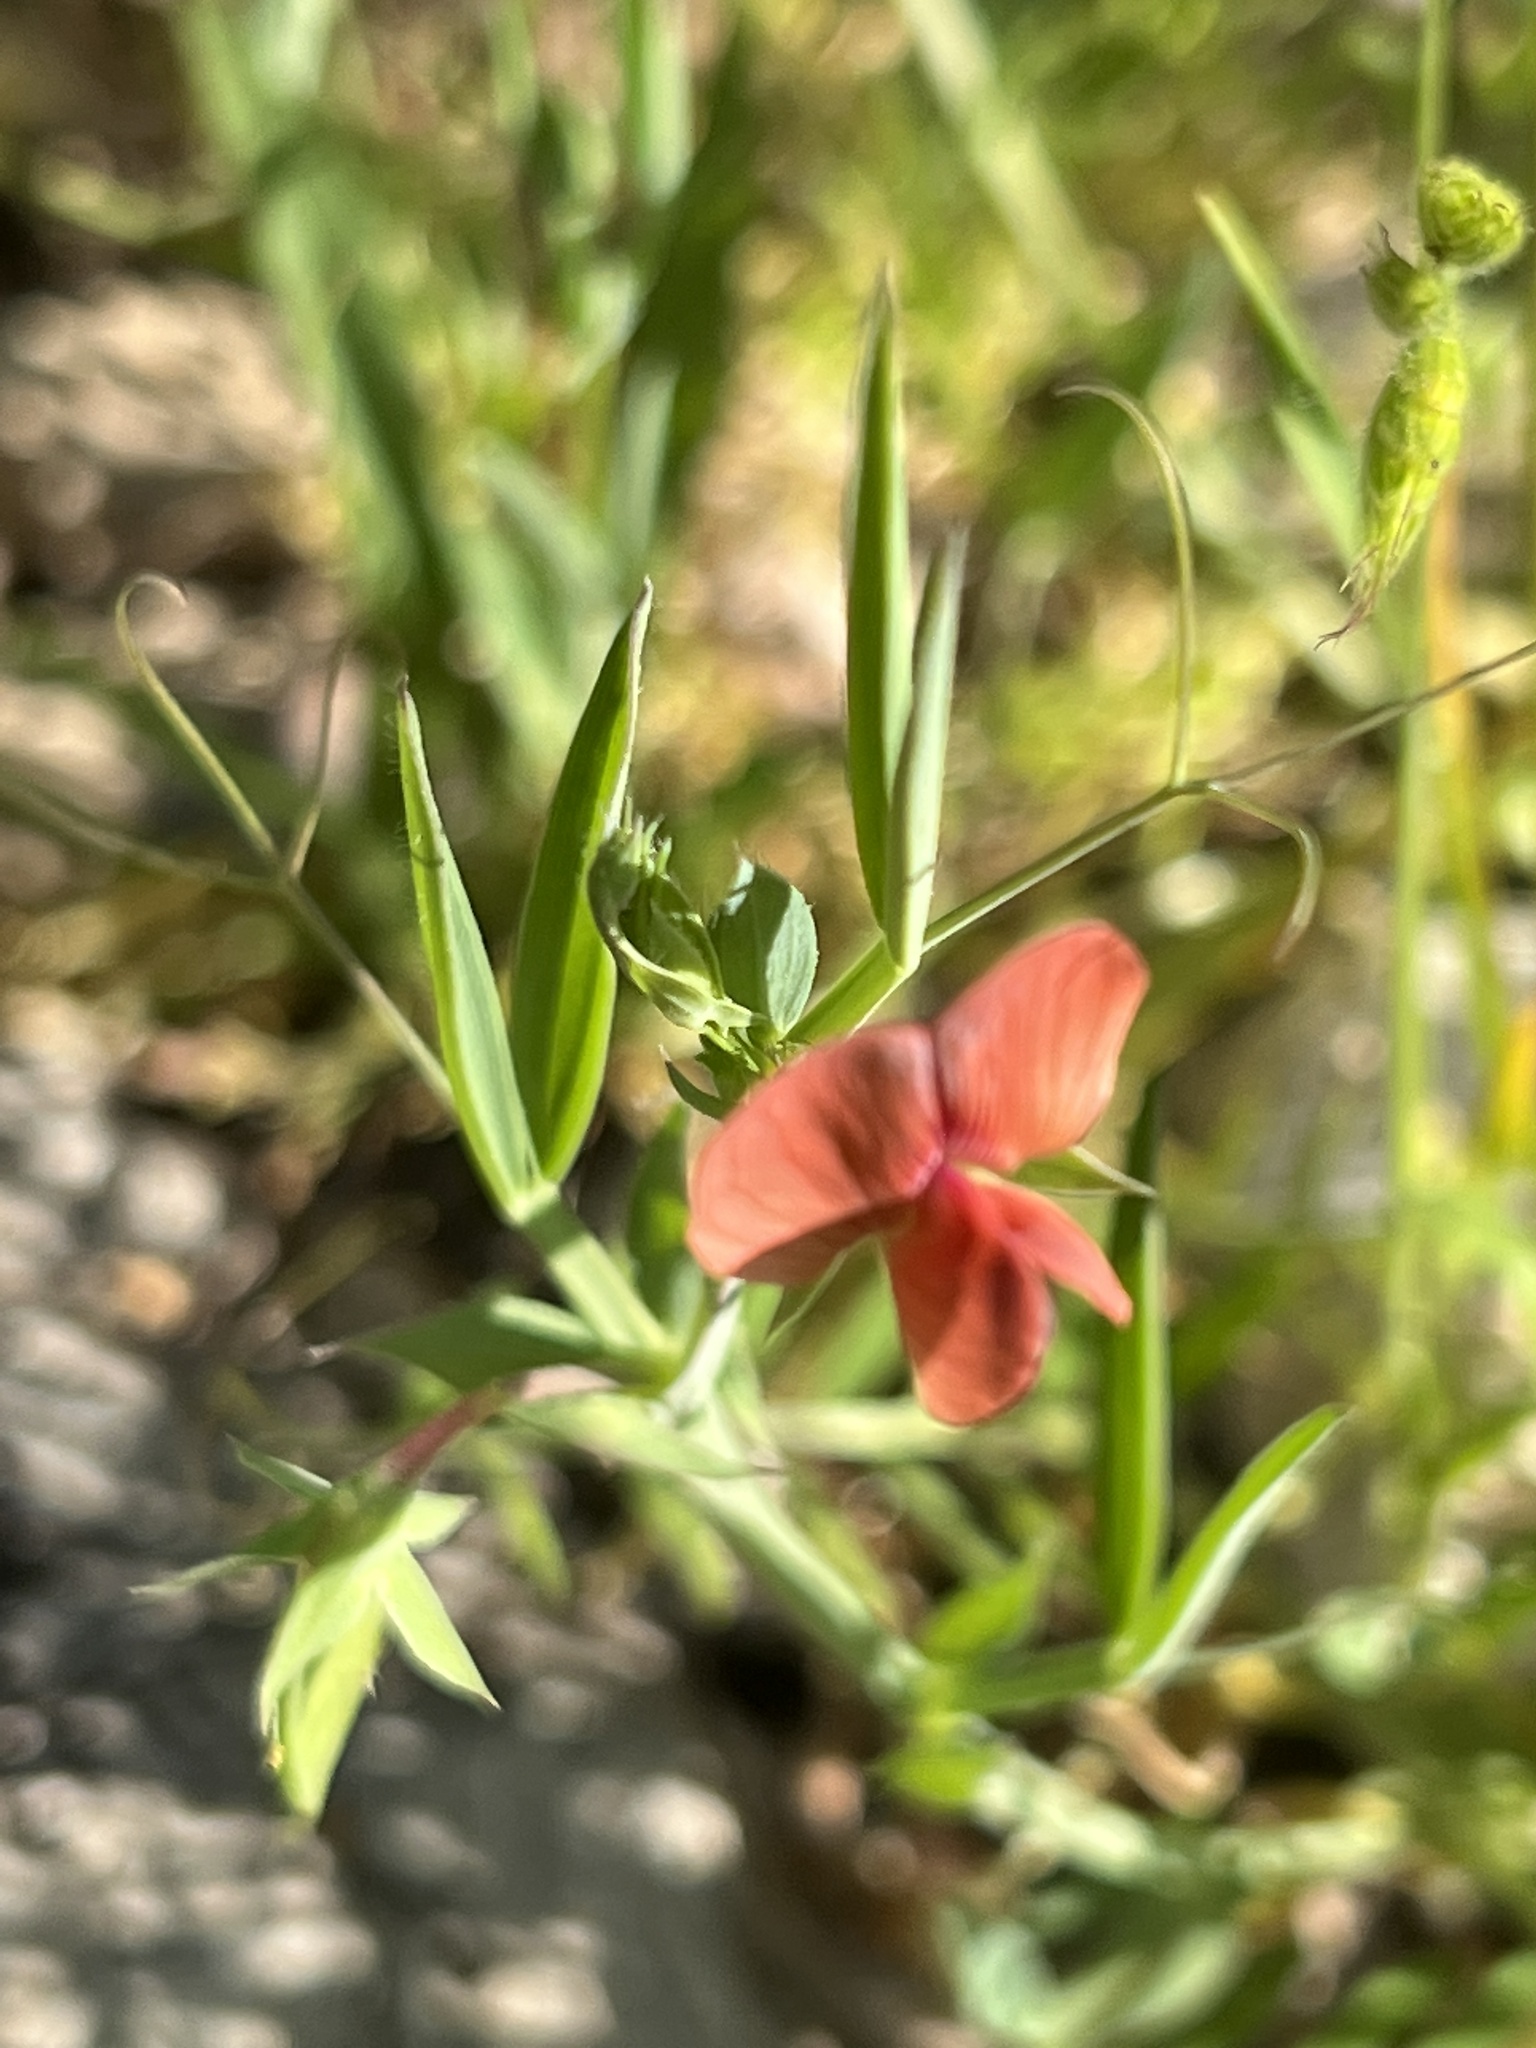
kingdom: Plantae
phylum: Tracheophyta
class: Magnoliopsida
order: Fabales
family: Fabaceae
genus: Lathyrus
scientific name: Lathyrus cicera
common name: Red vetchling
